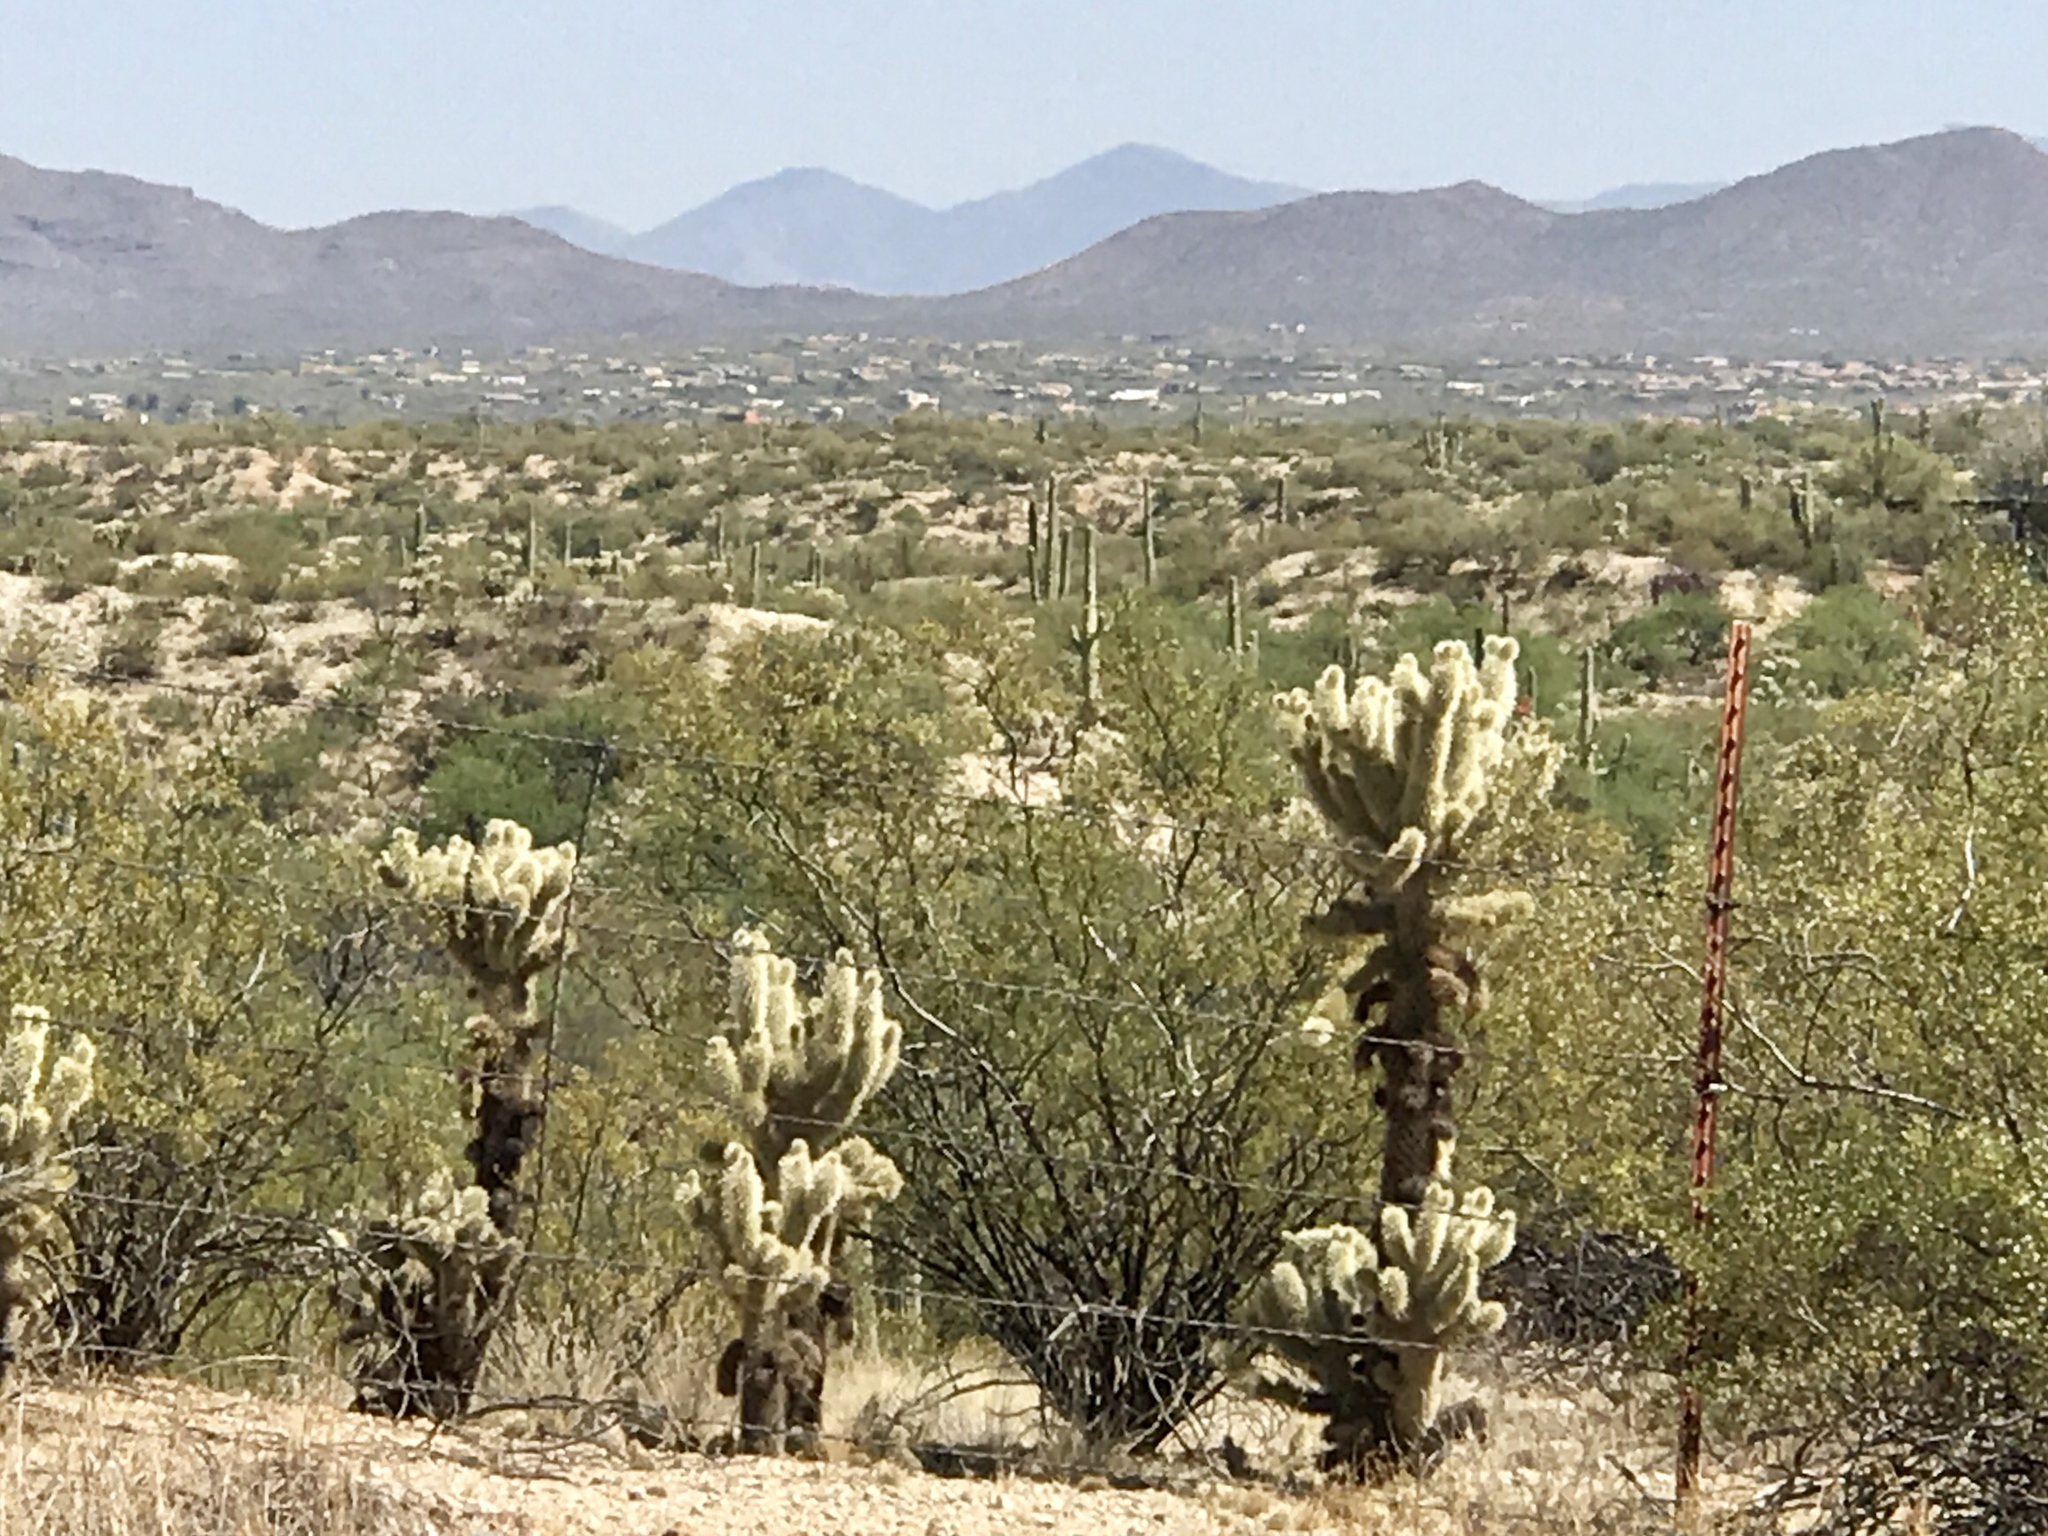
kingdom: Plantae
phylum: Tracheophyta
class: Magnoliopsida
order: Caryophyllales
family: Cactaceae
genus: Cylindropuntia
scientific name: Cylindropuntia fosbergii
